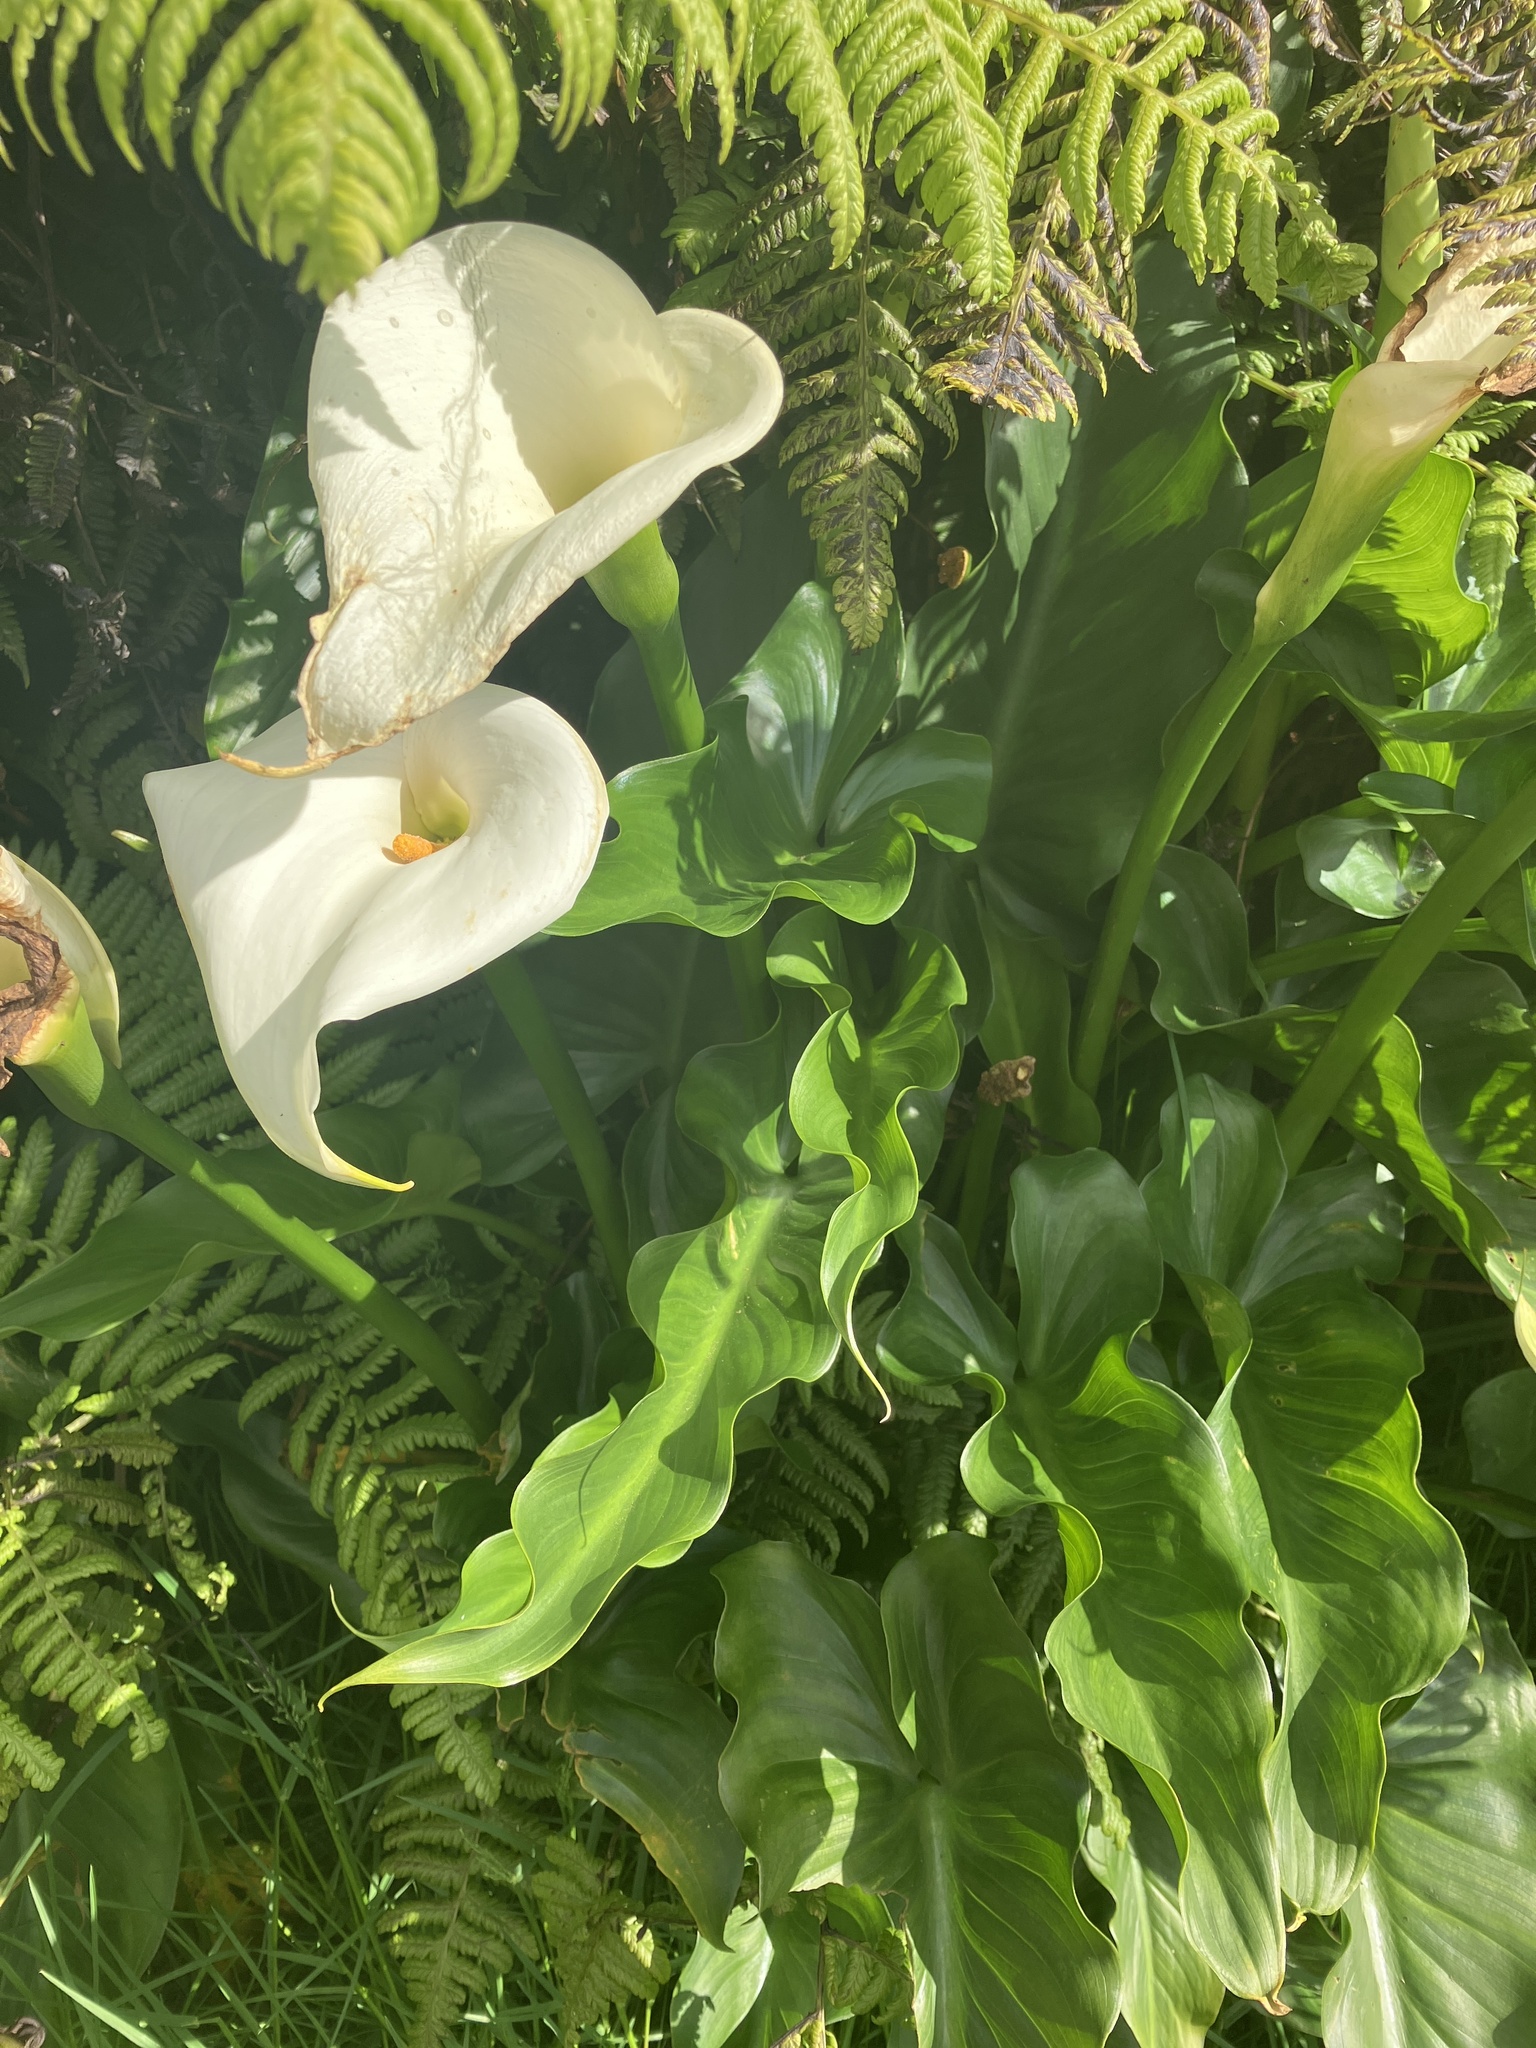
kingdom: Plantae
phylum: Tracheophyta
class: Liliopsida
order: Alismatales
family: Araceae
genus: Zantedeschia
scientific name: Zantedeschia aethiopica
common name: Altar-lily
